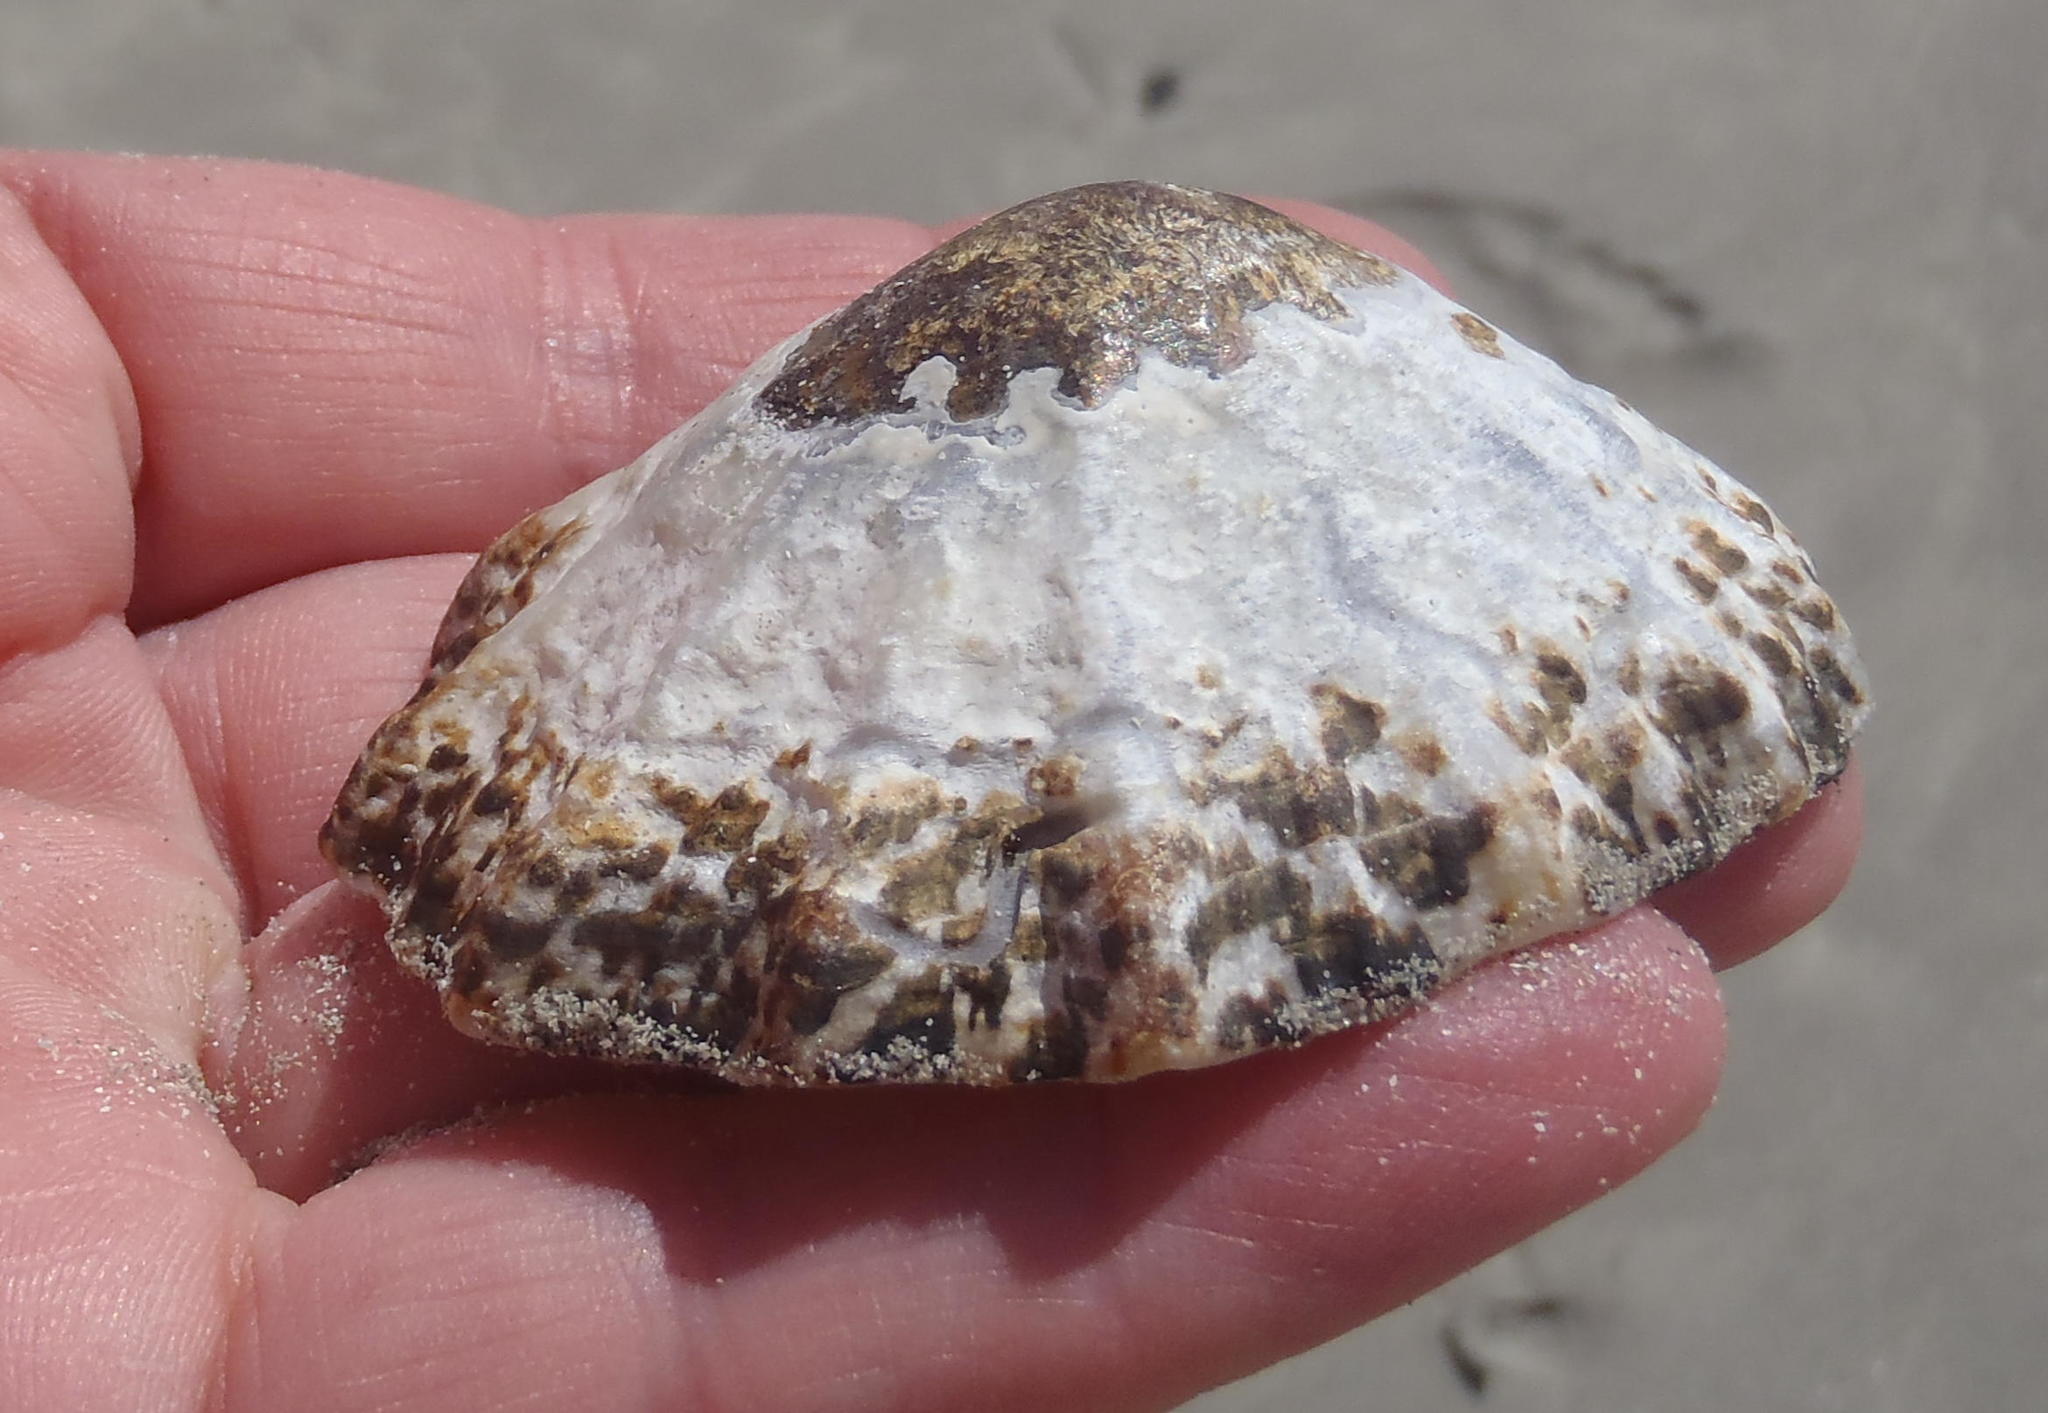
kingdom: Animalia
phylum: Mollusca
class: Gastropoda
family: Patellidae
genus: Cymbula
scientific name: Cymbula granatina
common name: Granite limpet
